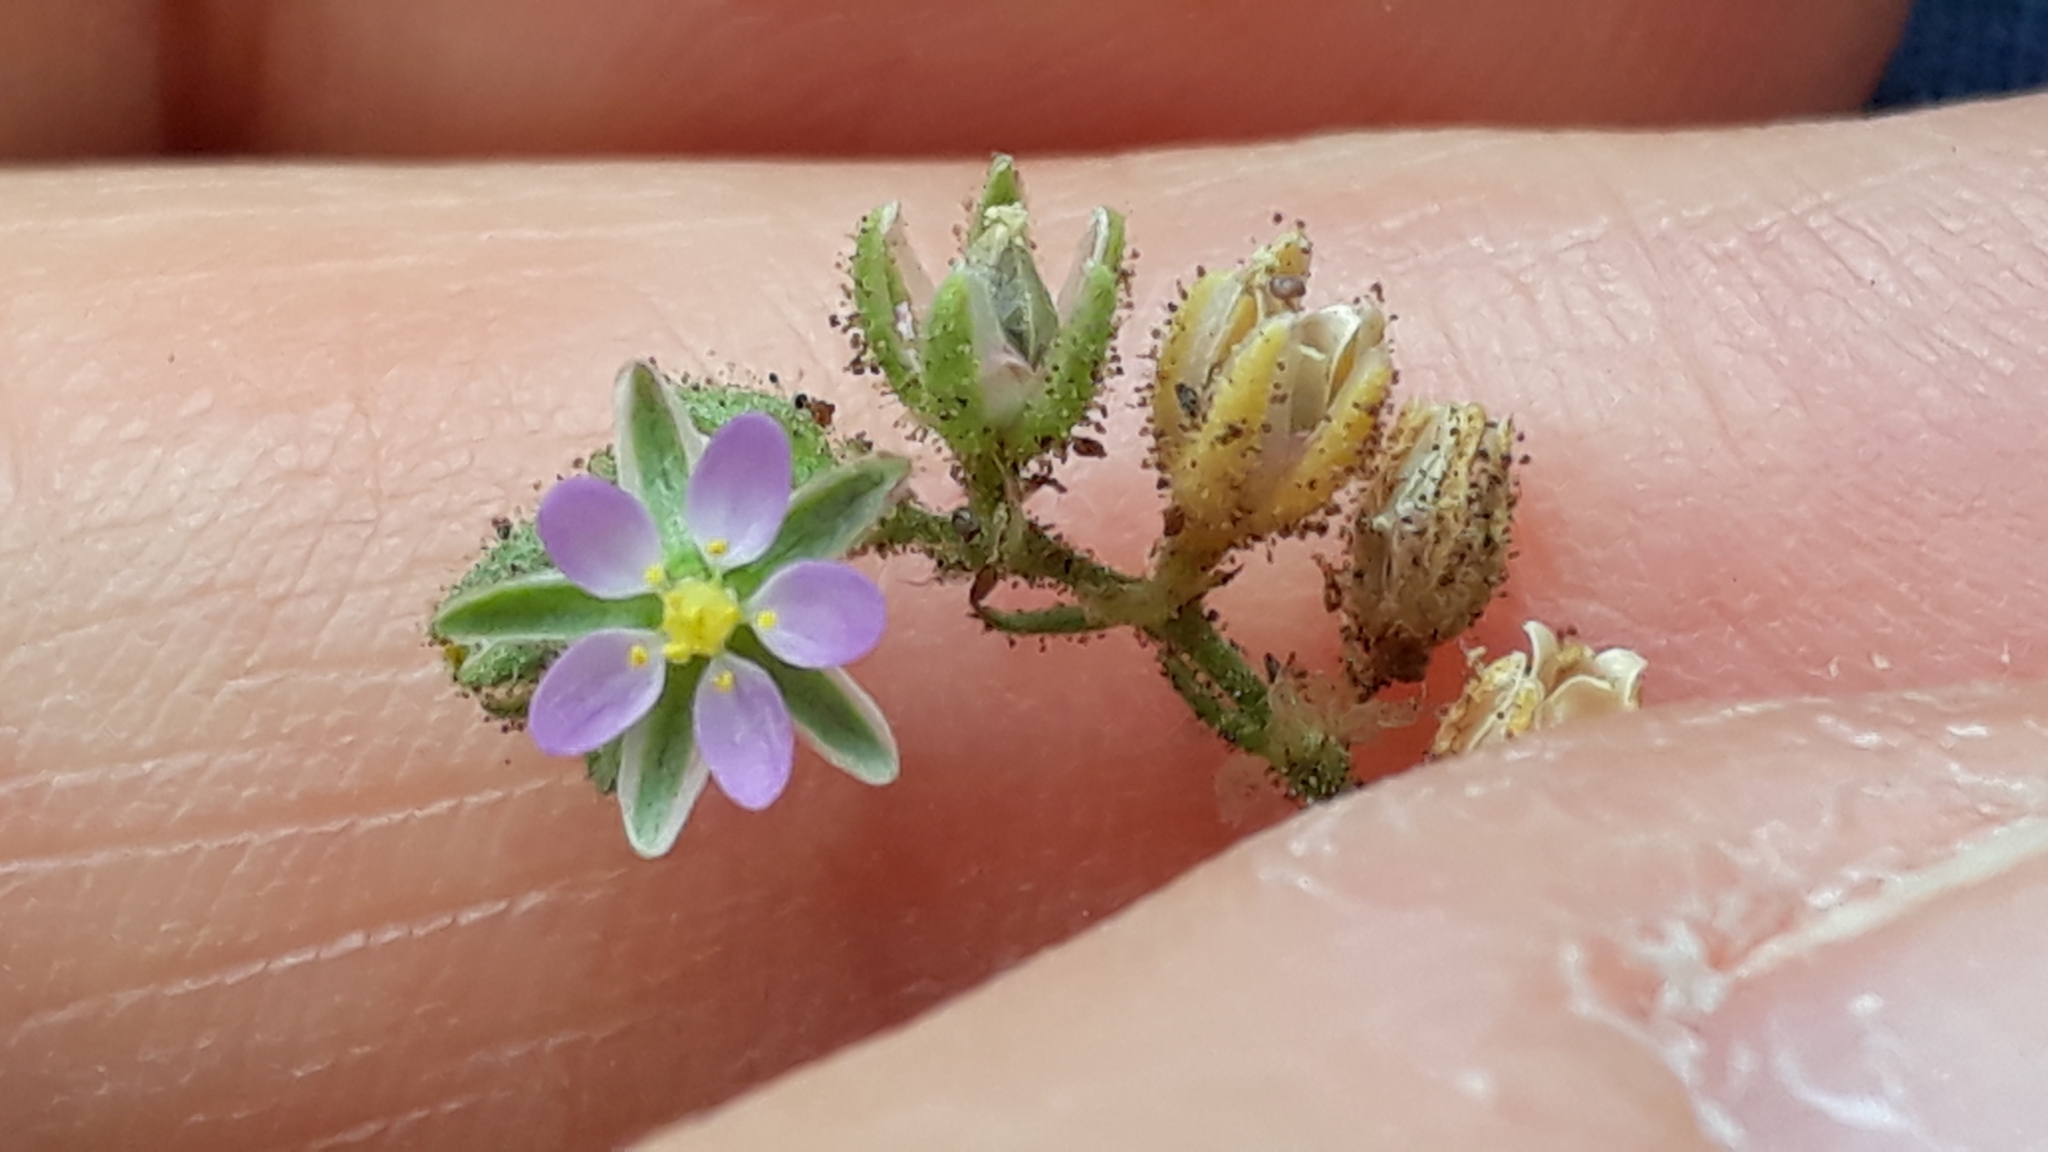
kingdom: Plantae
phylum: Tracheophyta
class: Magnoliopsida
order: Caryophyllales
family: Caryophyllaceae
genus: Spergularia
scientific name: Spergularia marina
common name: Lesser sea-spurrey
